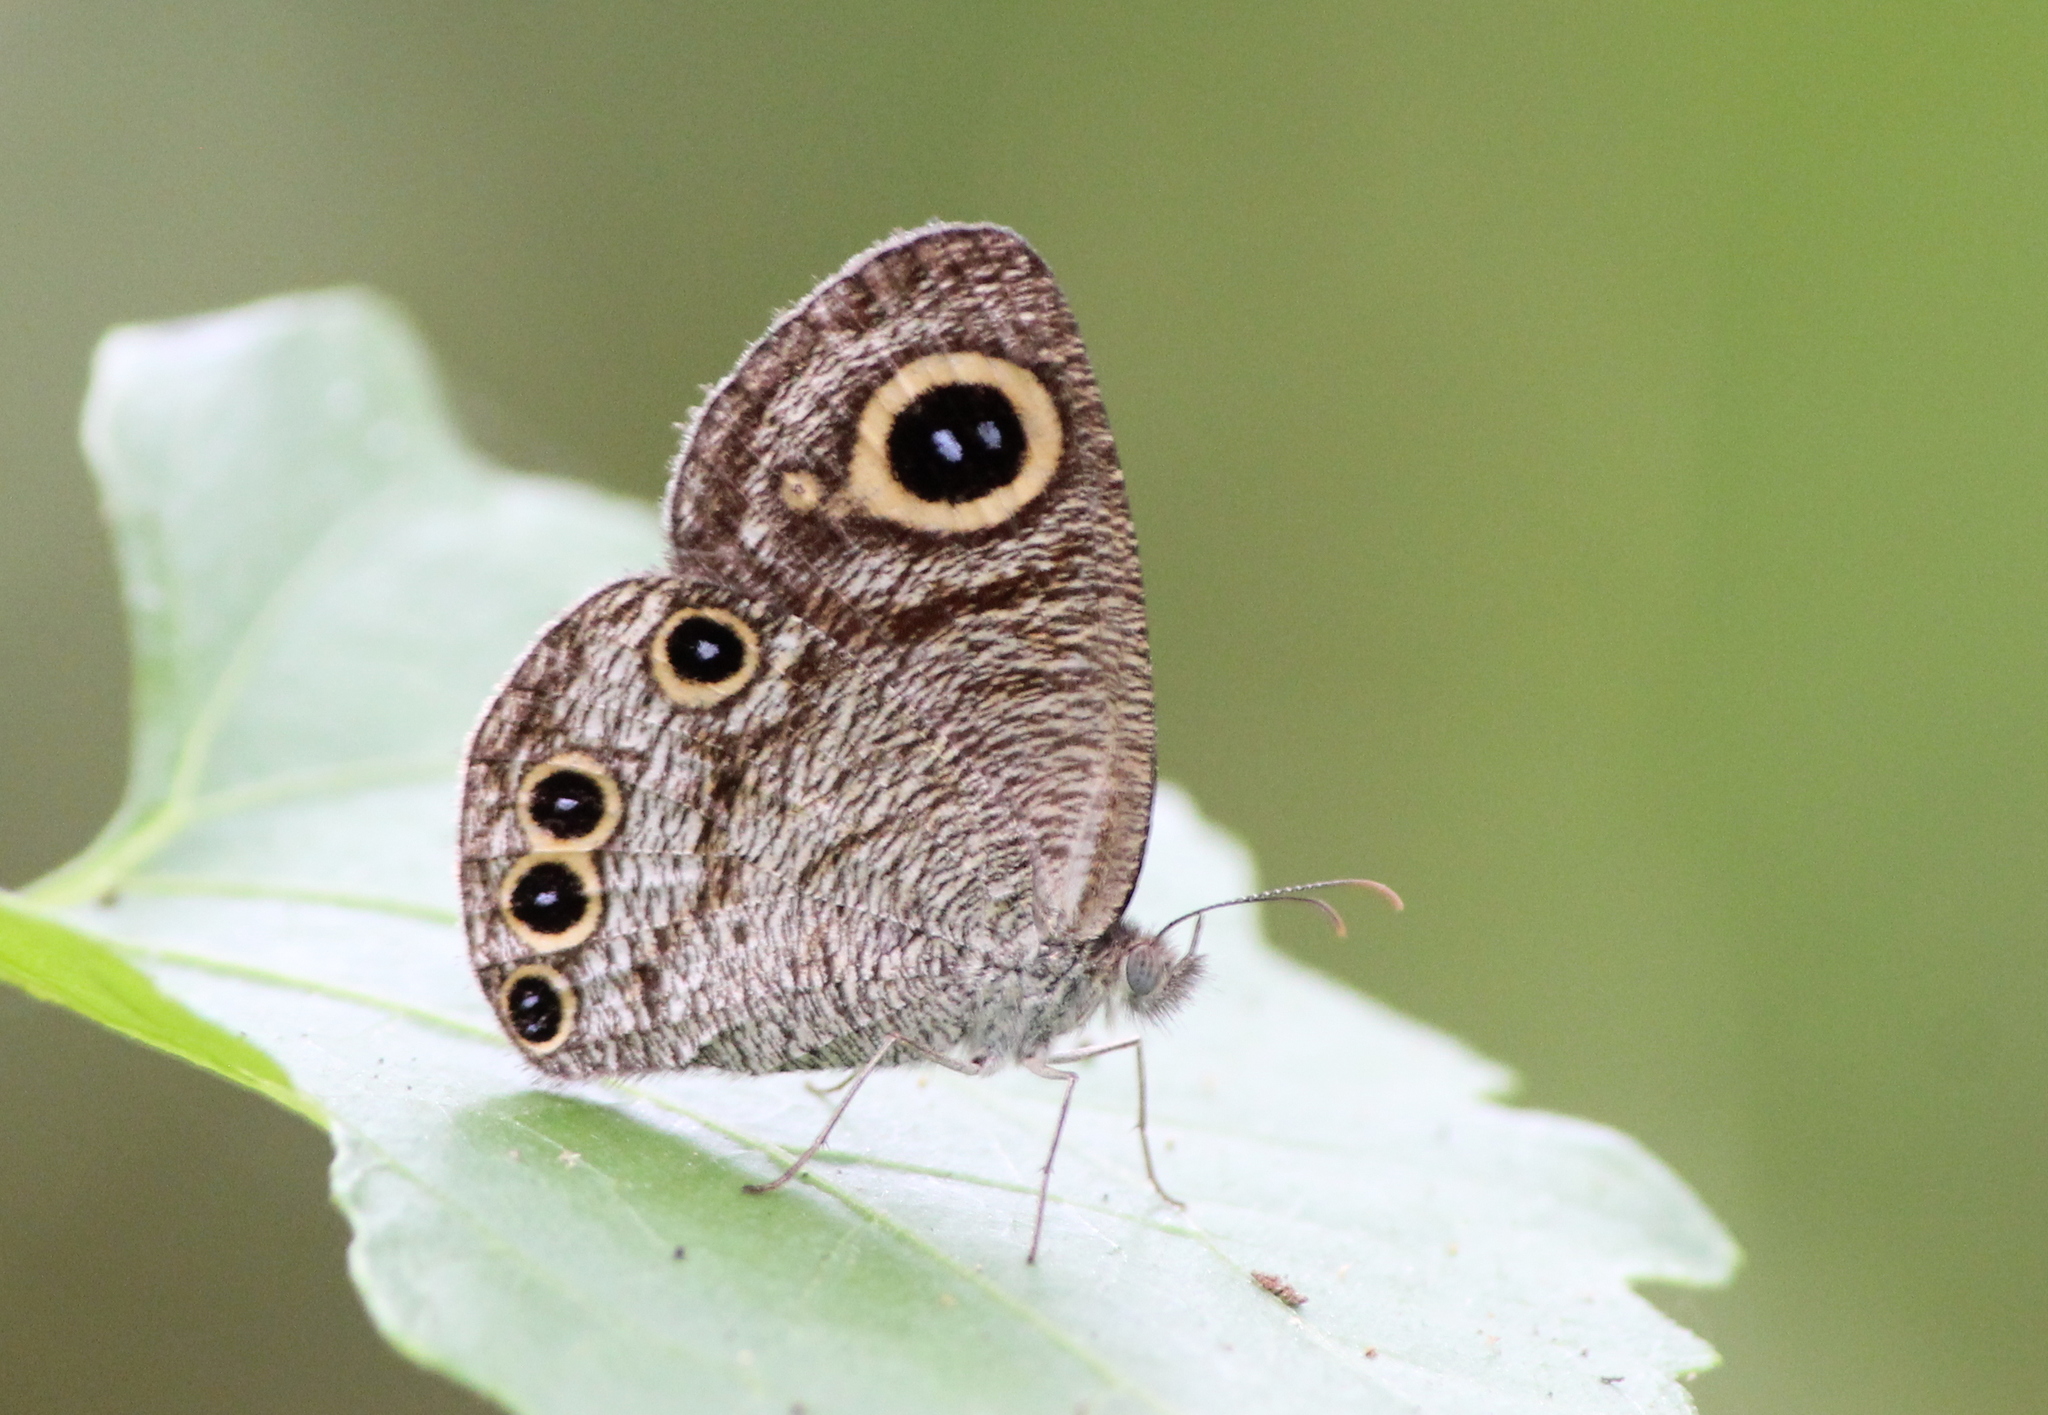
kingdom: Animalia
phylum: Arthropoda
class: Insecta
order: Lepidoptera
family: Nymphalidae
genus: Ypthima
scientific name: Ypthima huebneri
